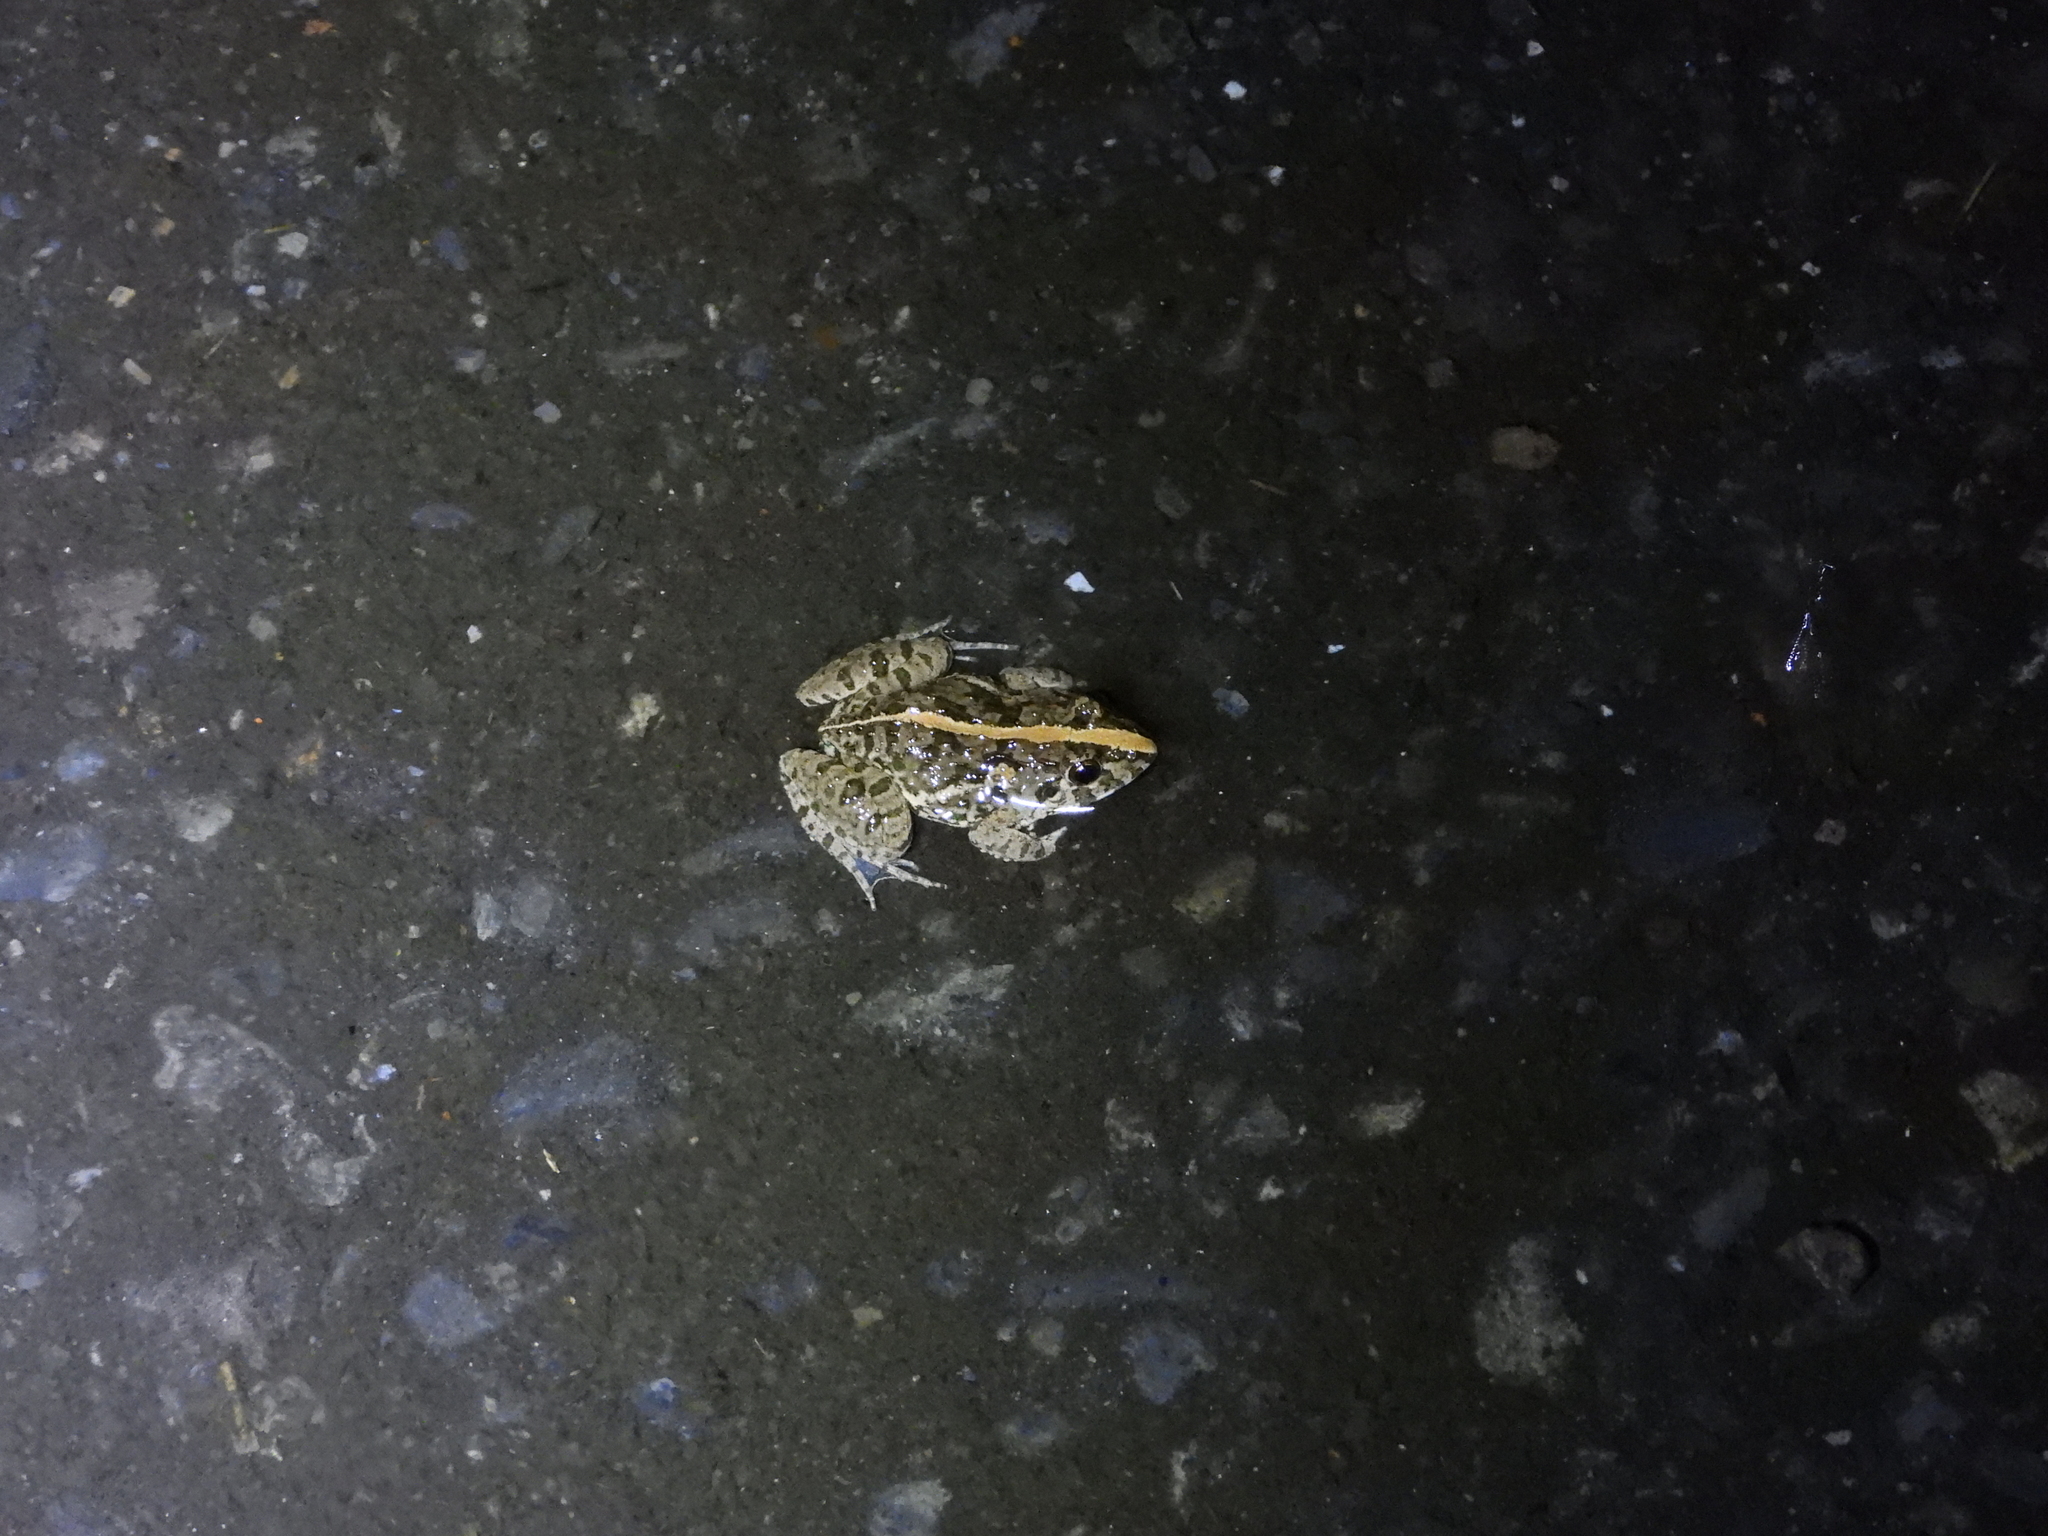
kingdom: Animalia
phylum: Chordata
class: Amphibia
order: Anura
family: Dicroglossidae
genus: Fejervarya
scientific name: Fejervarya limnocharis
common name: Asian grass frog/common pond frog/field frog/grass frog/indian rice frog
